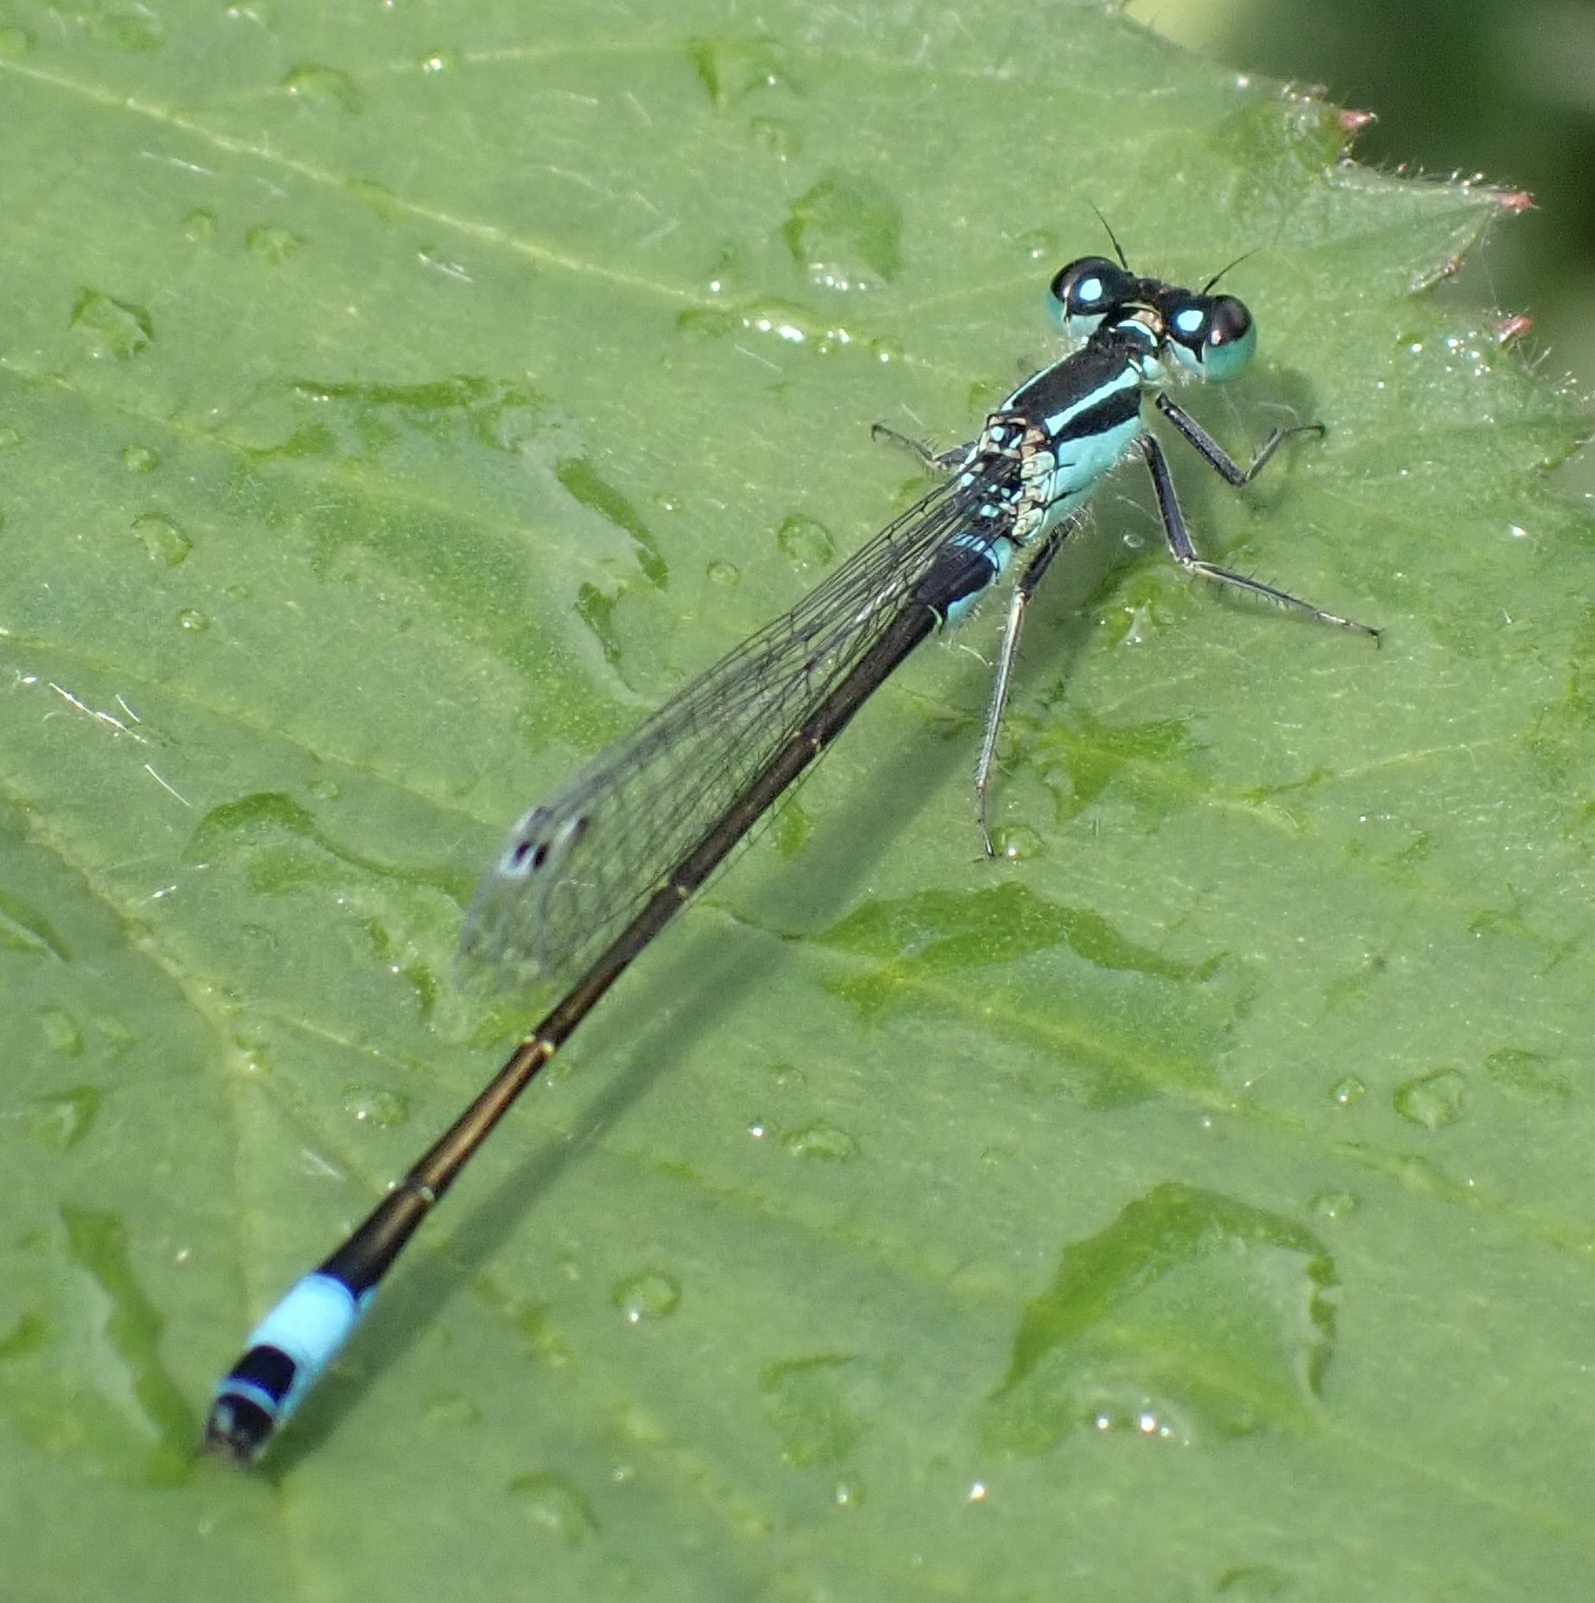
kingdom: Animalia
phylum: Arthropoda
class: Insecta
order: Odonata
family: Coenagrionidae
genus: Ischnura
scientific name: Ischnura elegans
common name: Blue-tailed damselfly
